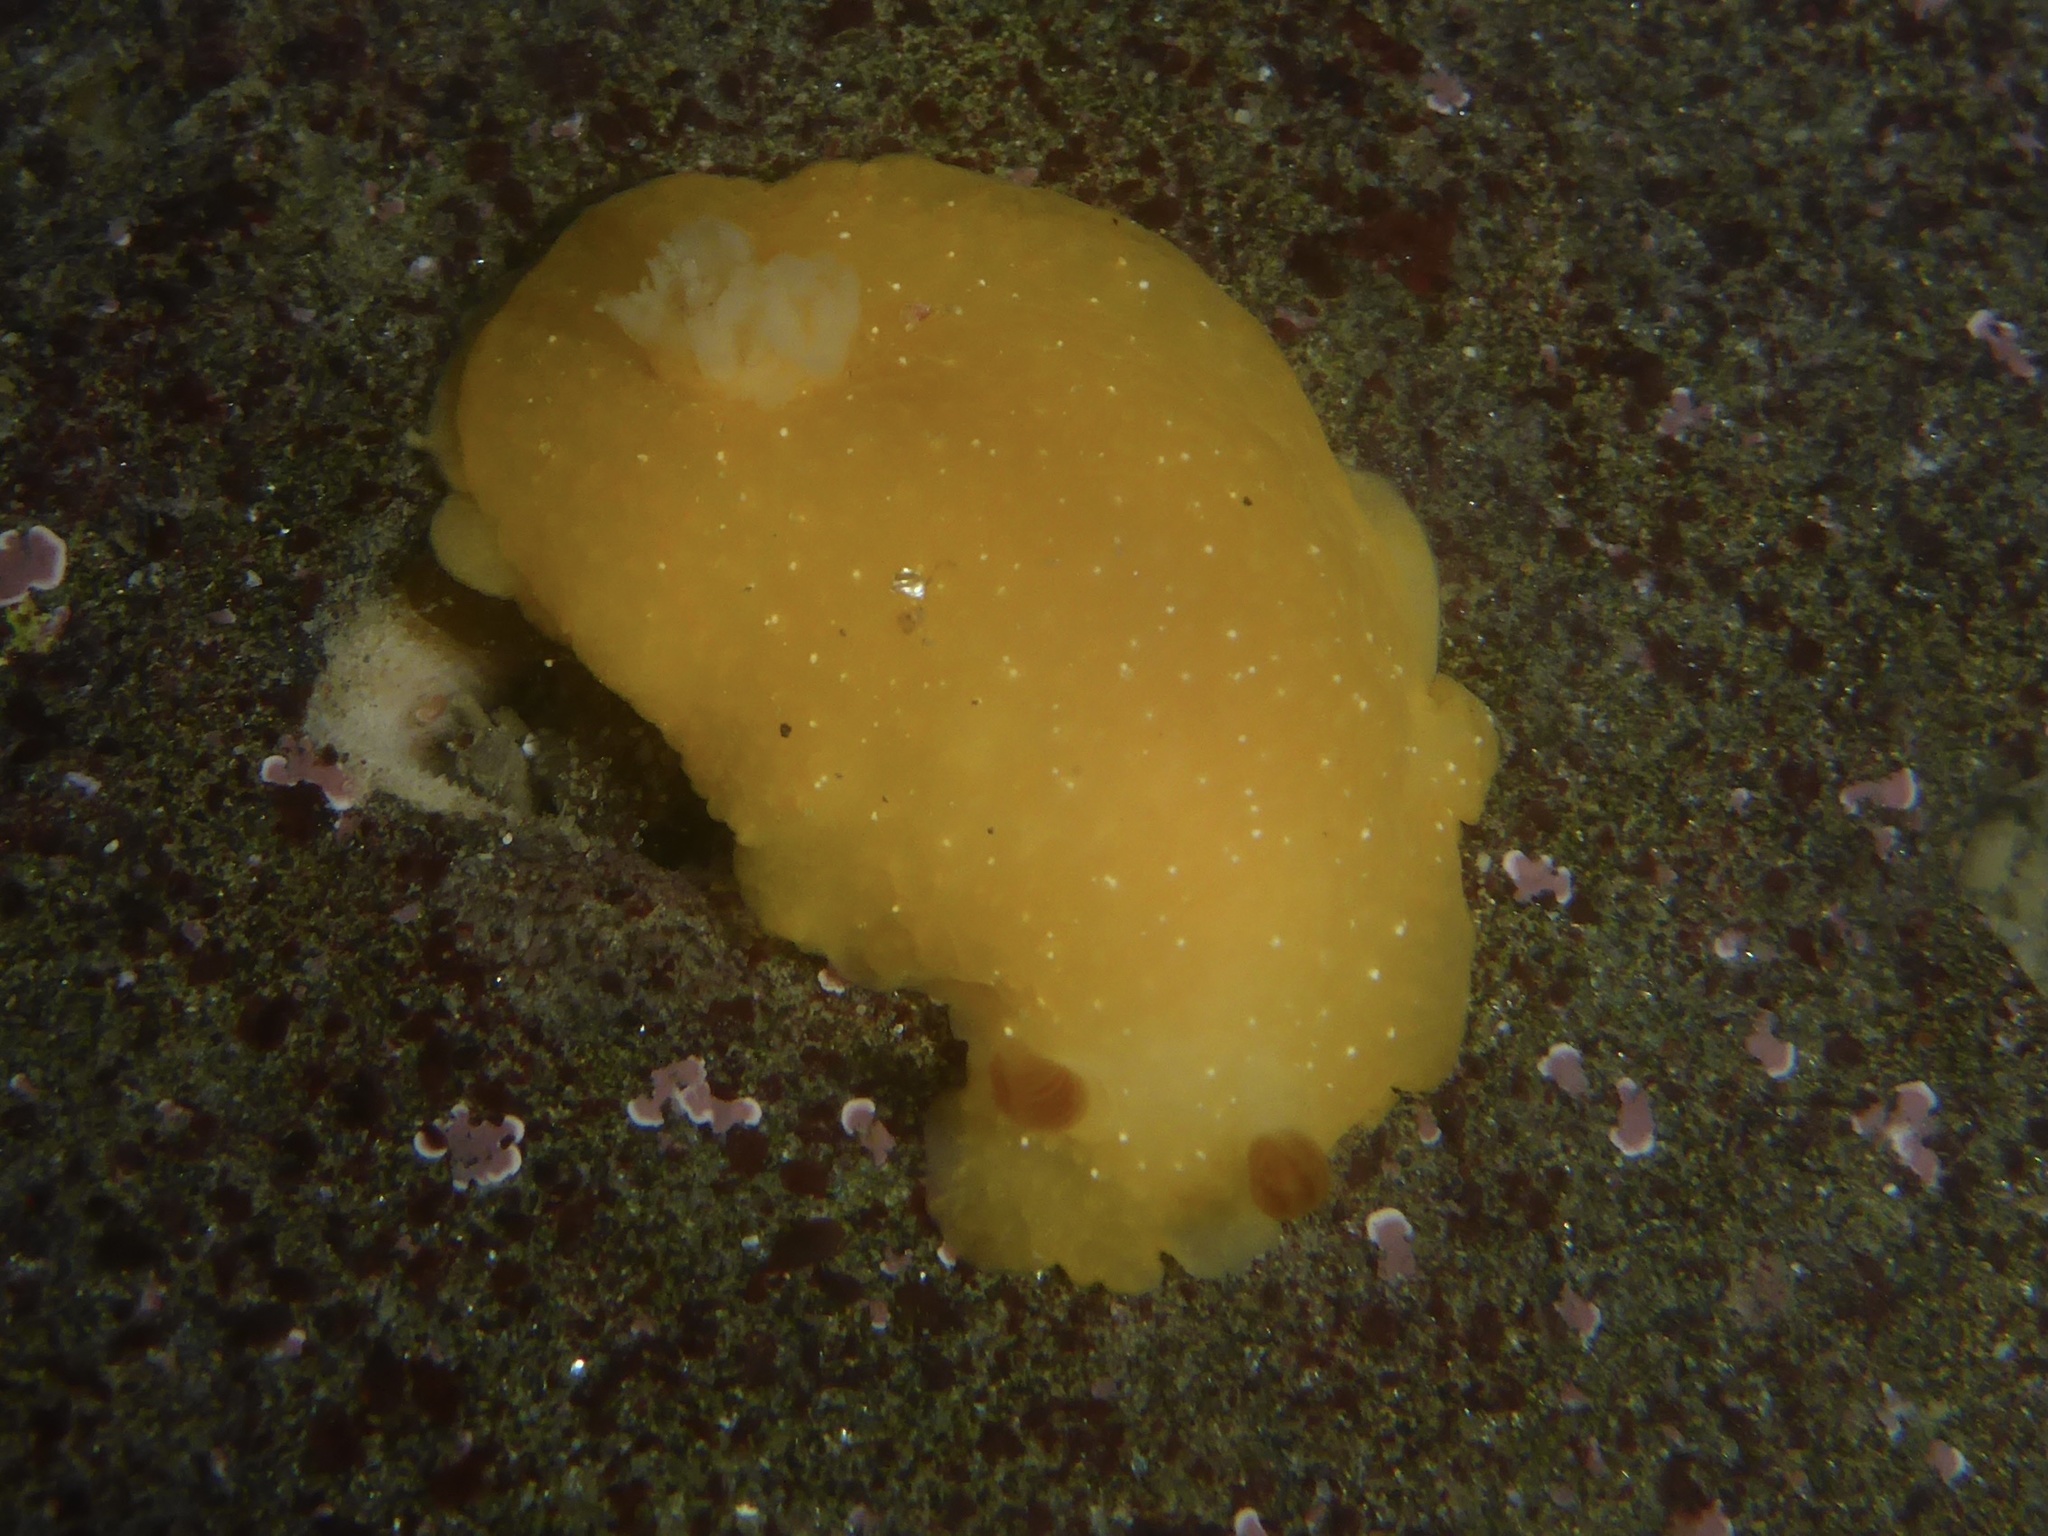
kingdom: Animalia
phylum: Mollusca
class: Gastropoda
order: Nudibranchia
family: Dendrodorididae
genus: Doriopsilla
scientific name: Doriopsilla fulva
